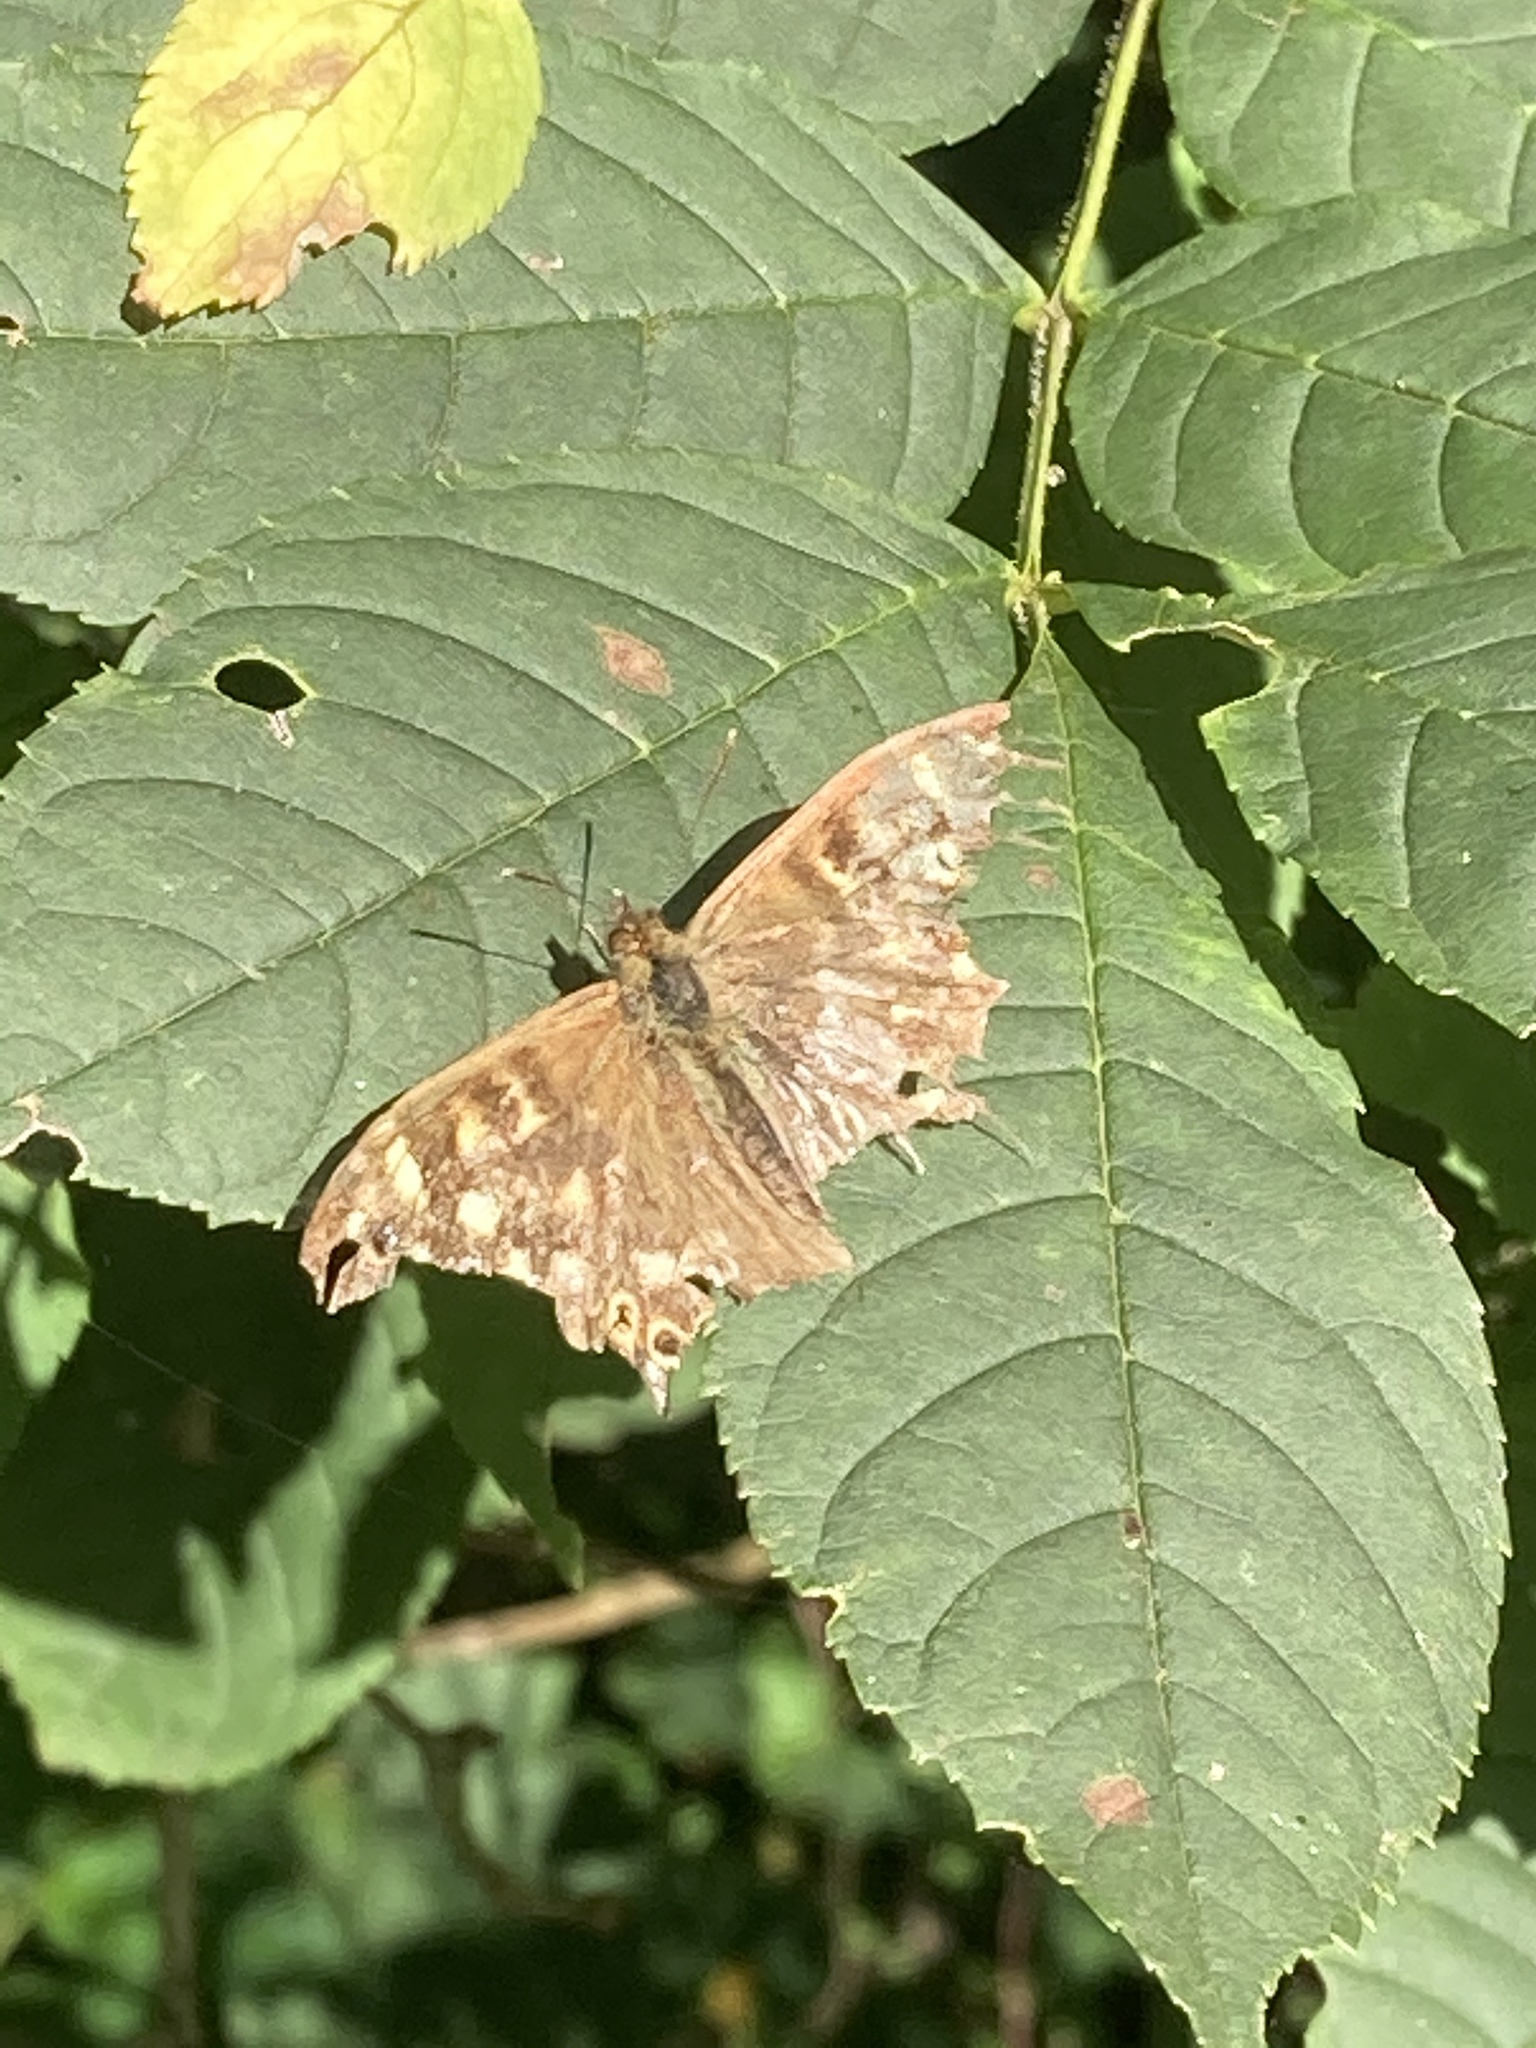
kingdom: Animalia
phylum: Arthropoda
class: Insecta
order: Lepidoptera
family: Nymphalidae
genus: Pararge
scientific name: Pararge aegeria
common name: Speckled wood
